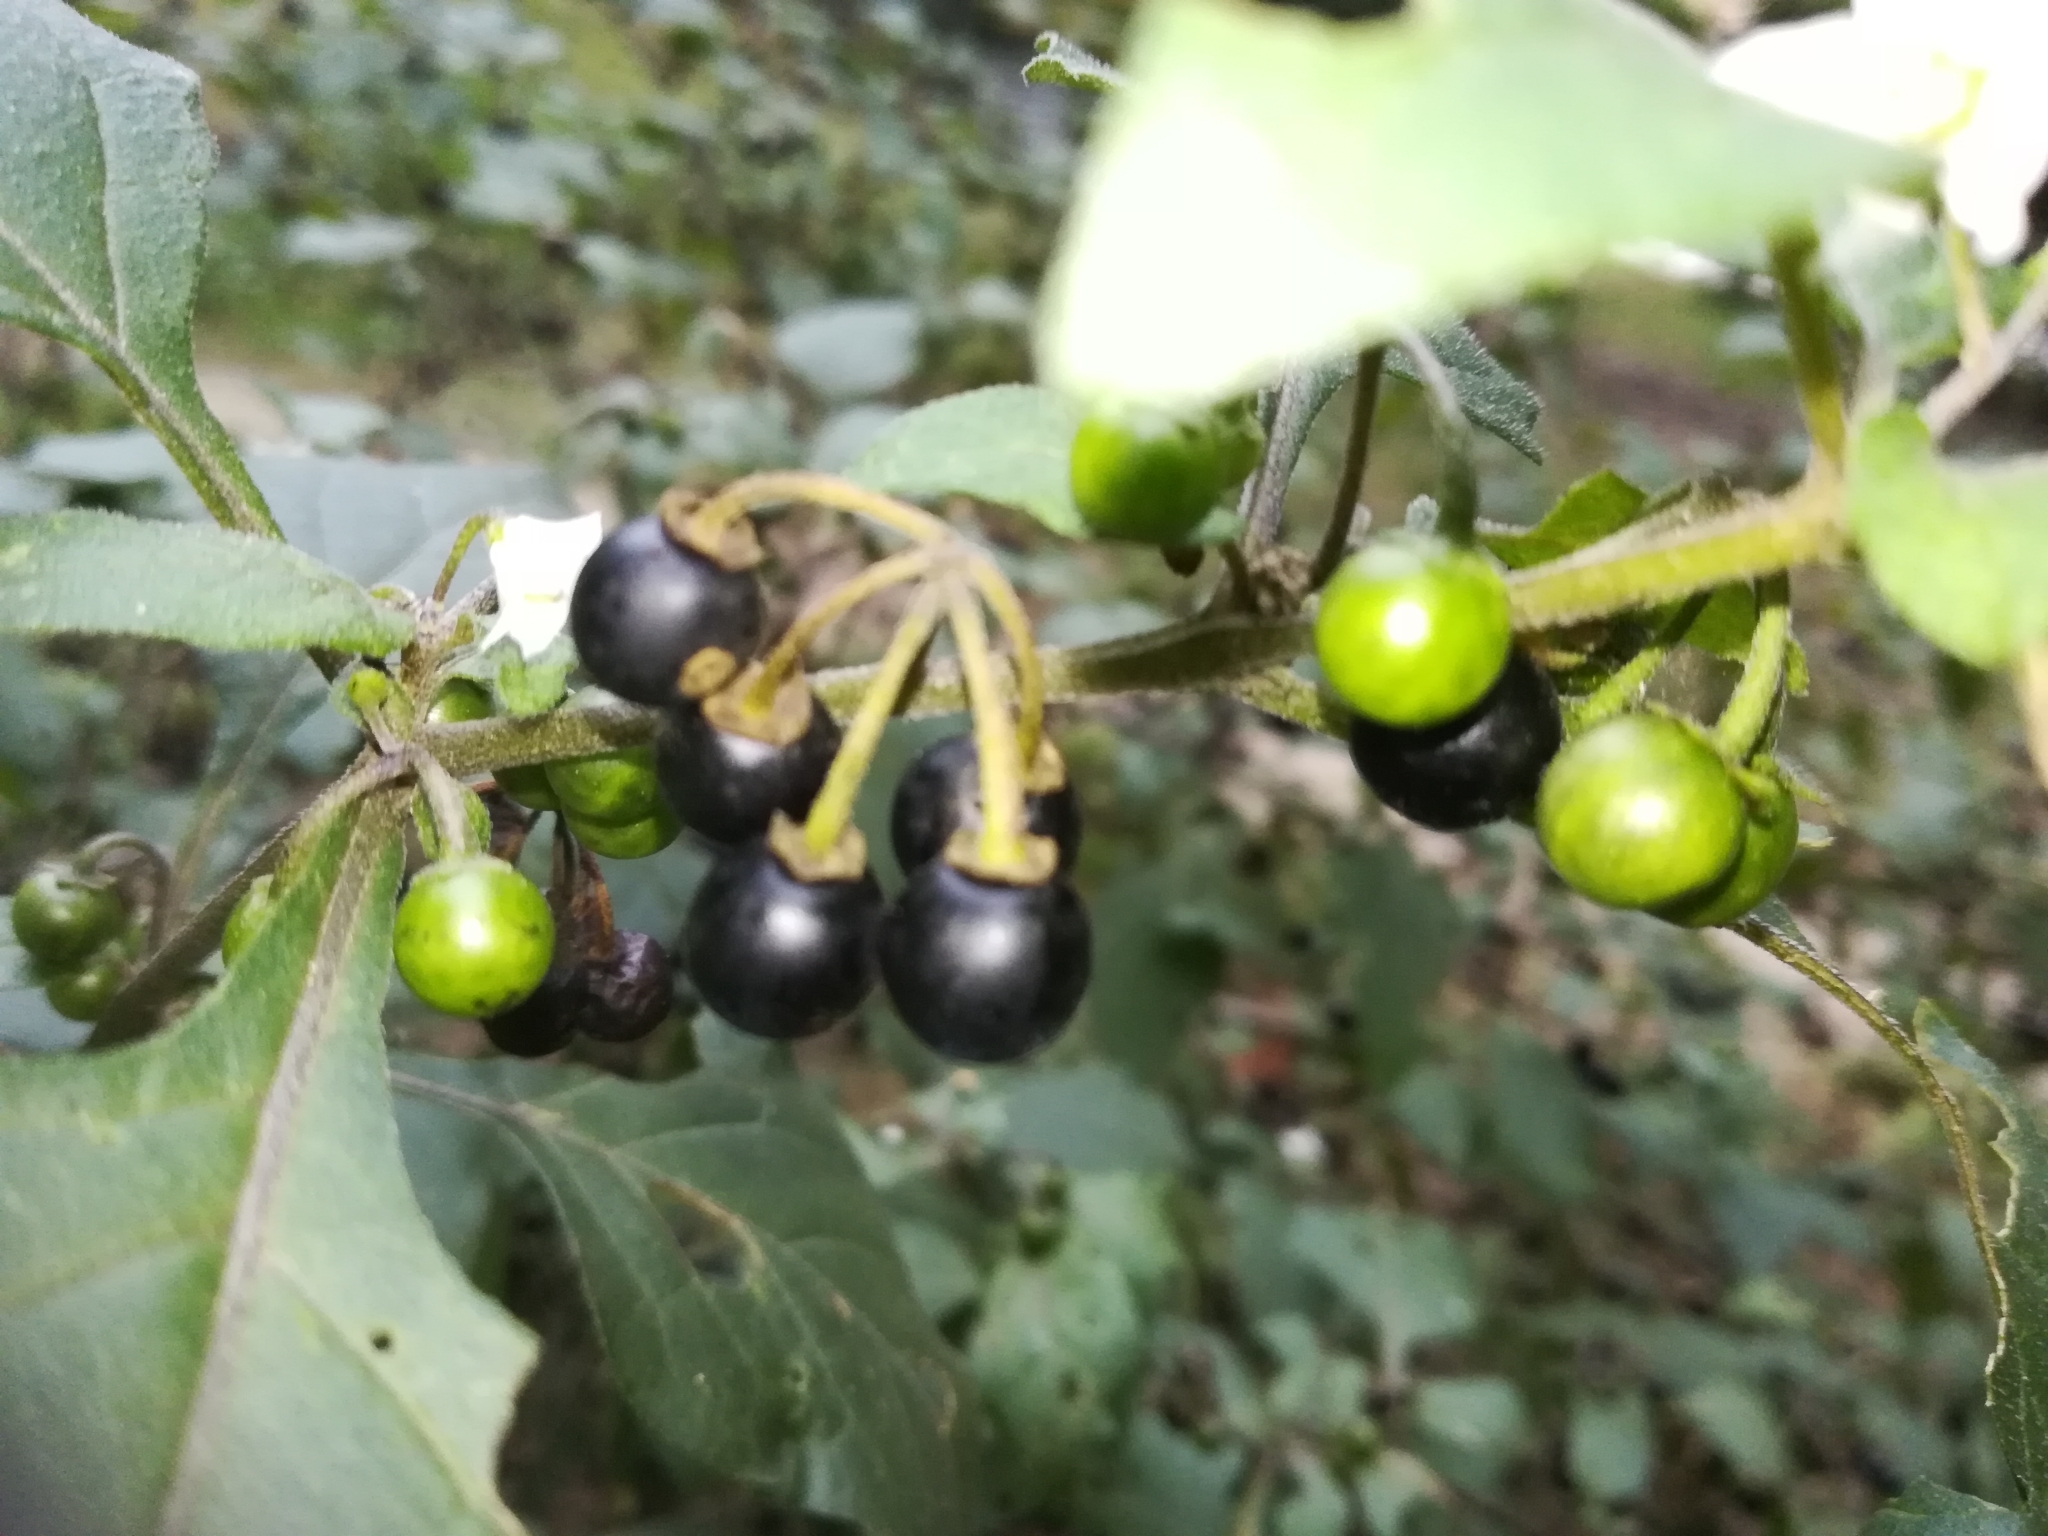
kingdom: Plantae
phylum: Tracheophyta
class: Magnoliopsida
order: Solanales
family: Solanaceae
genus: Solanum
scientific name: Solanum nigrum
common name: Black nightshade
